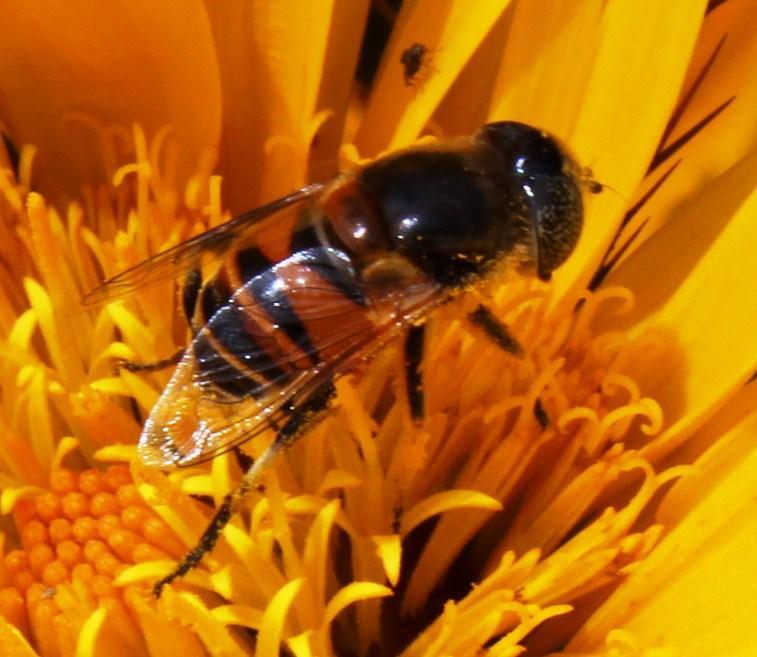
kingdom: Animalia
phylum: Arthropoda
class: Insecta
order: Diptera
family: Syrphidae
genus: Eristalinus
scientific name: Eristalinus modestus
